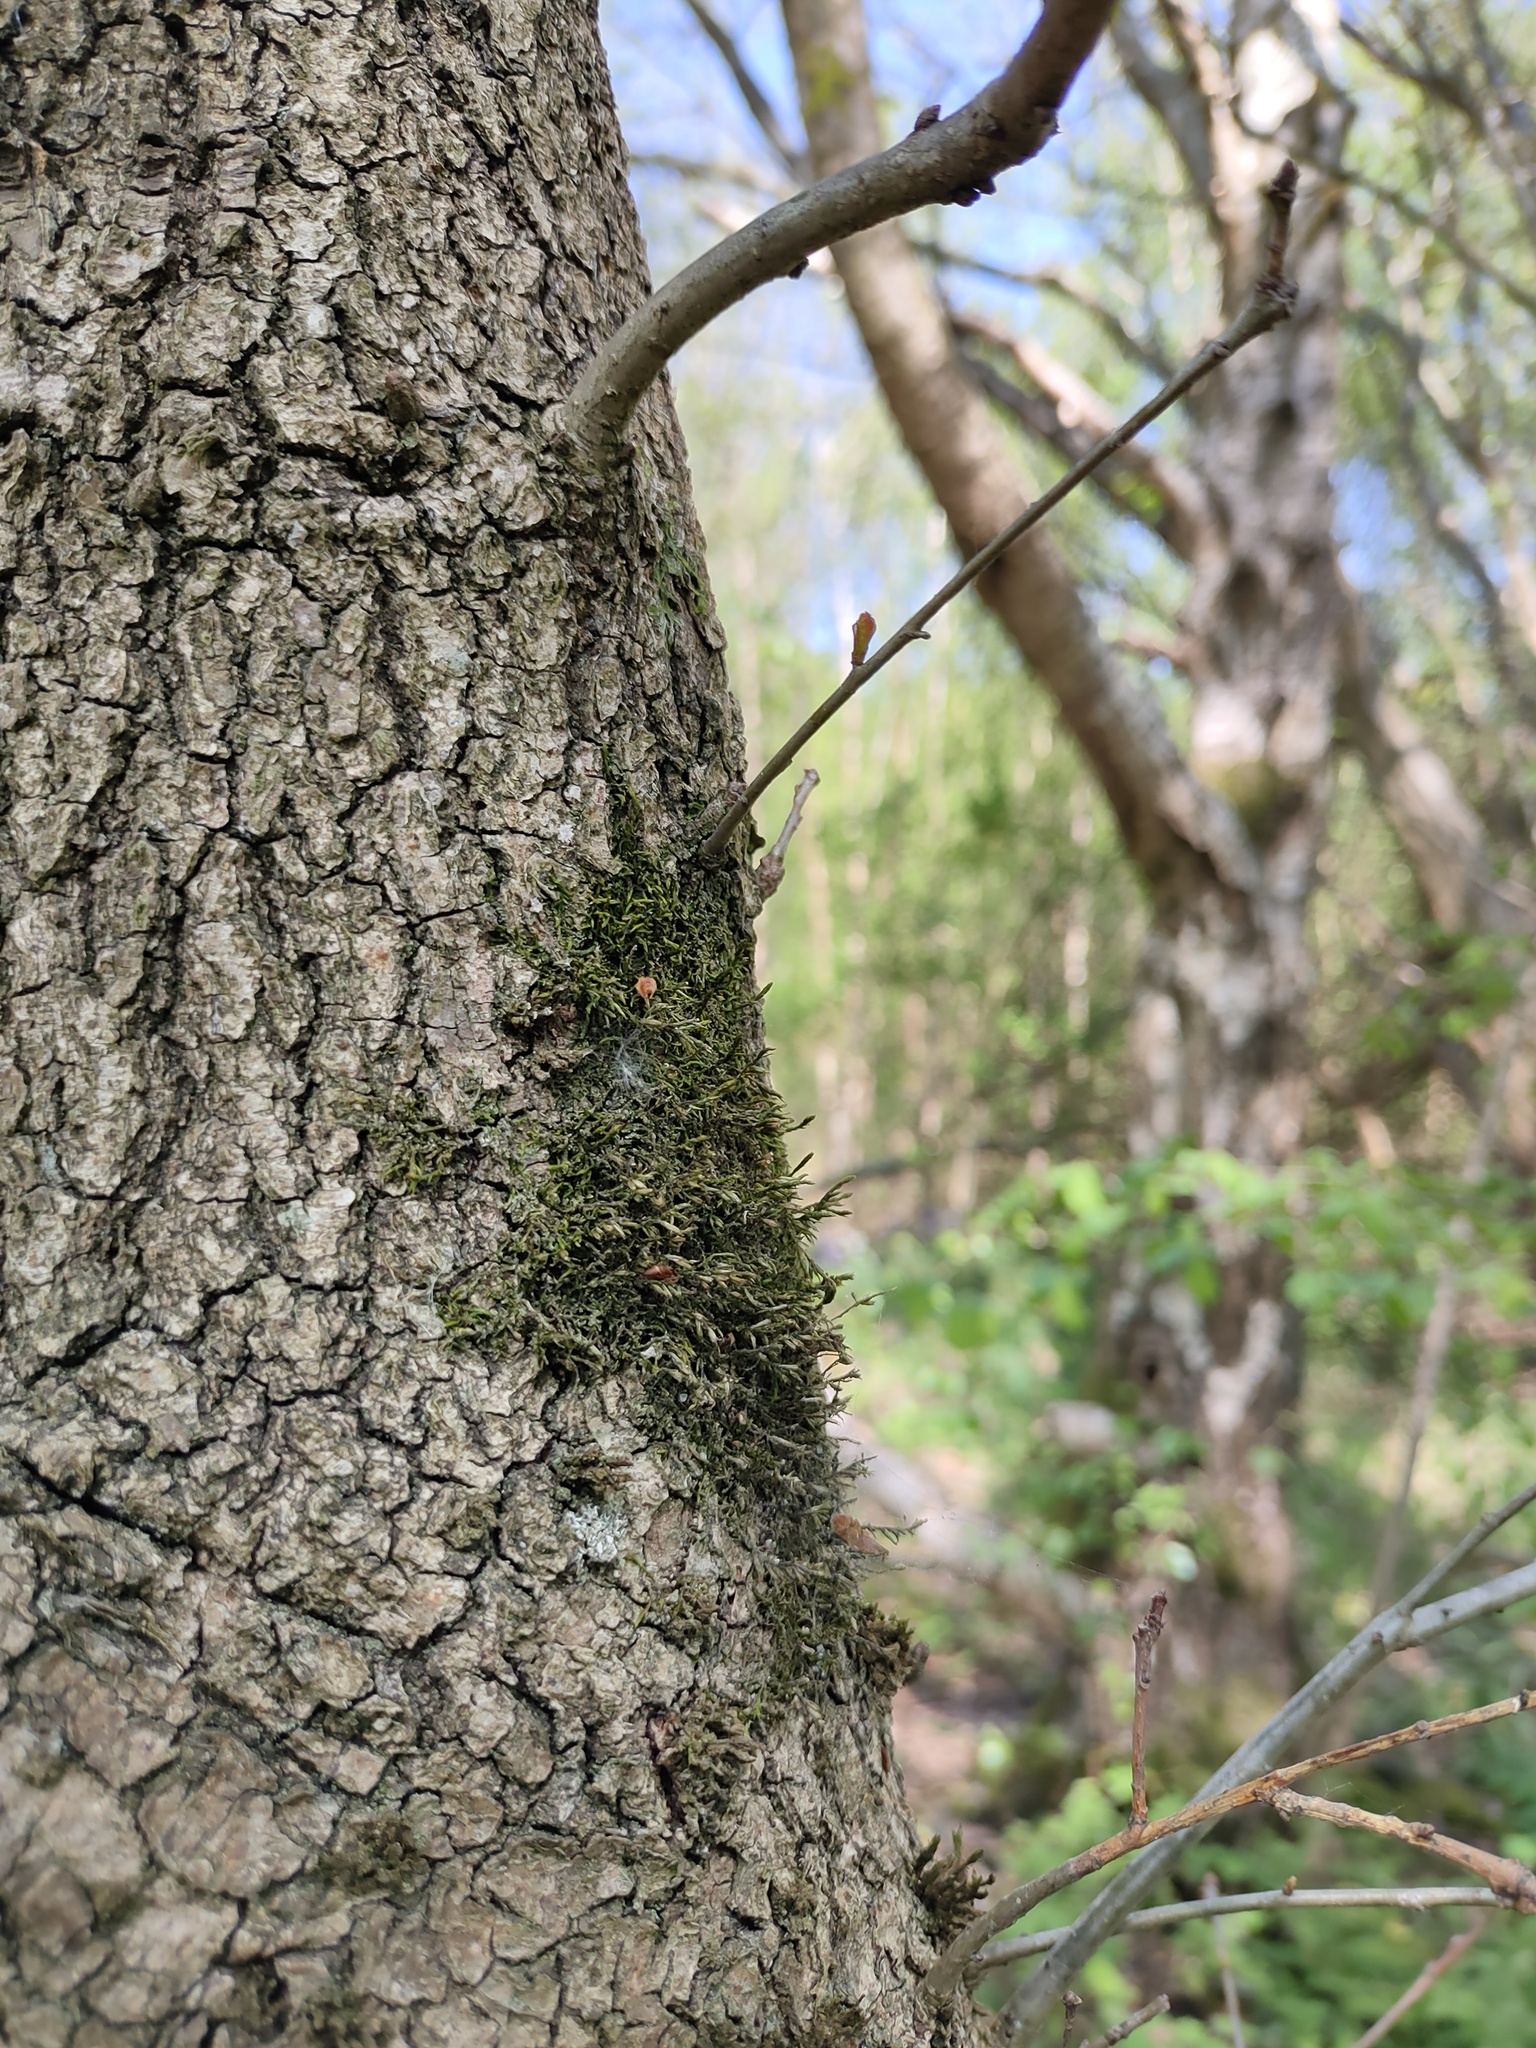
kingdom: Plantae
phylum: Bryophyta
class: Bryopsida
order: Hypnales
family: Cryphaeaceae
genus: Cryphaea
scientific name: Cryphaea heteromalla
